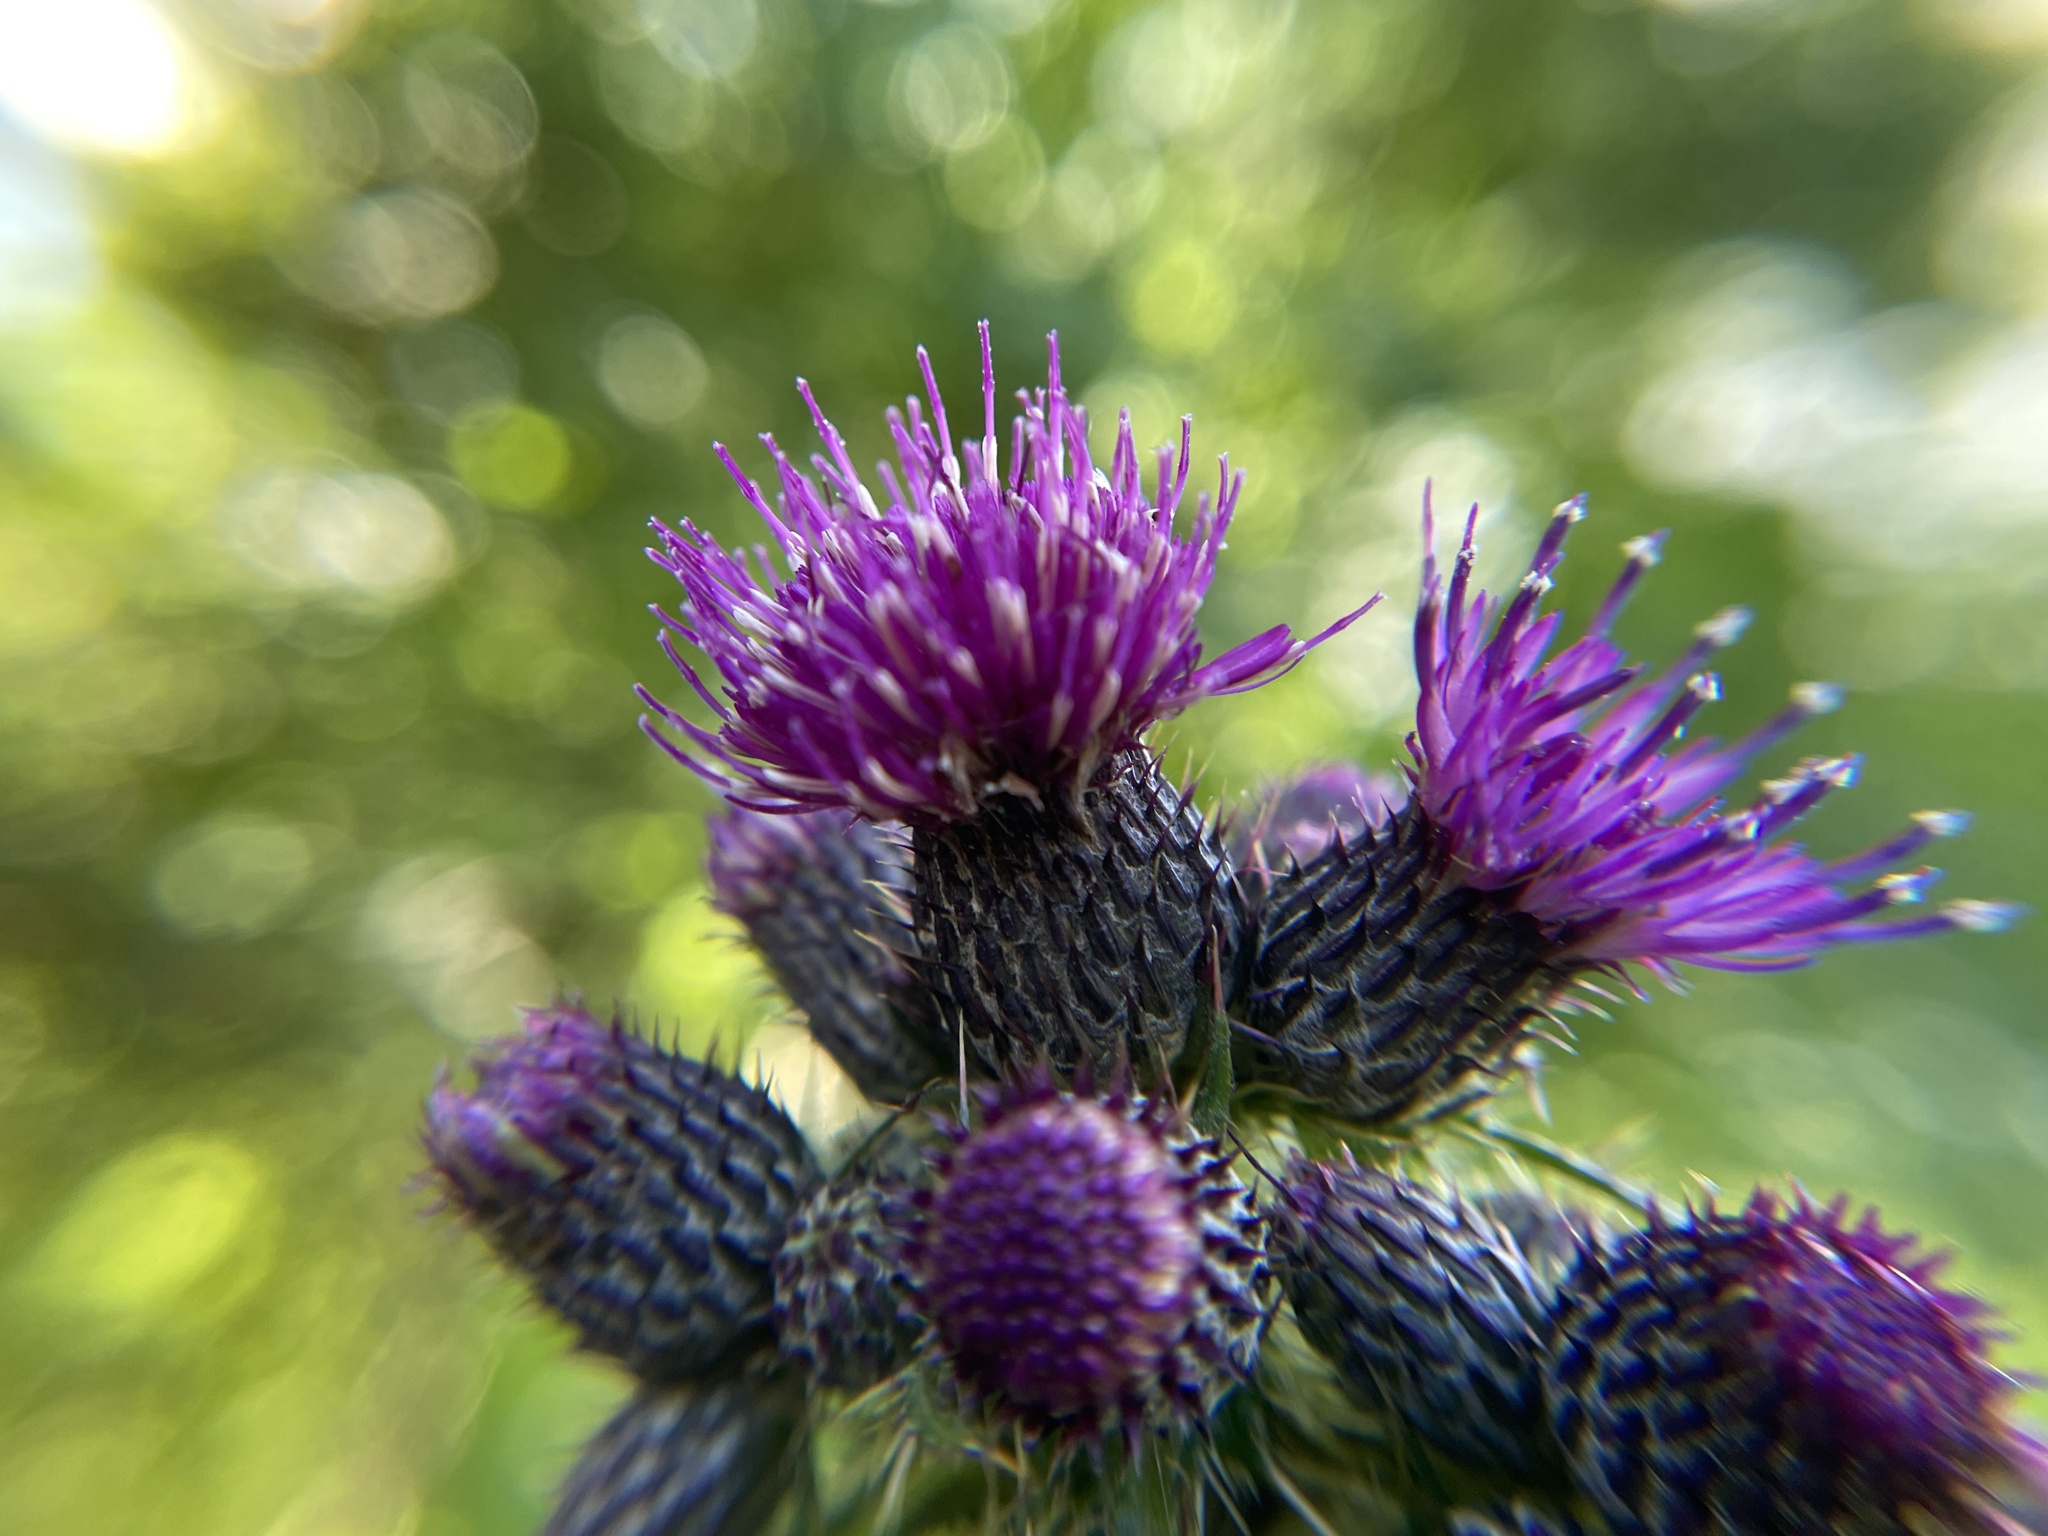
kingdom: Plantae
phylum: Tracheophyta
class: Magnoliopsida
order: Asterales
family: Asteraceae
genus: Cirsium
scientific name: Cirsium palustre
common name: Marsh thistle
